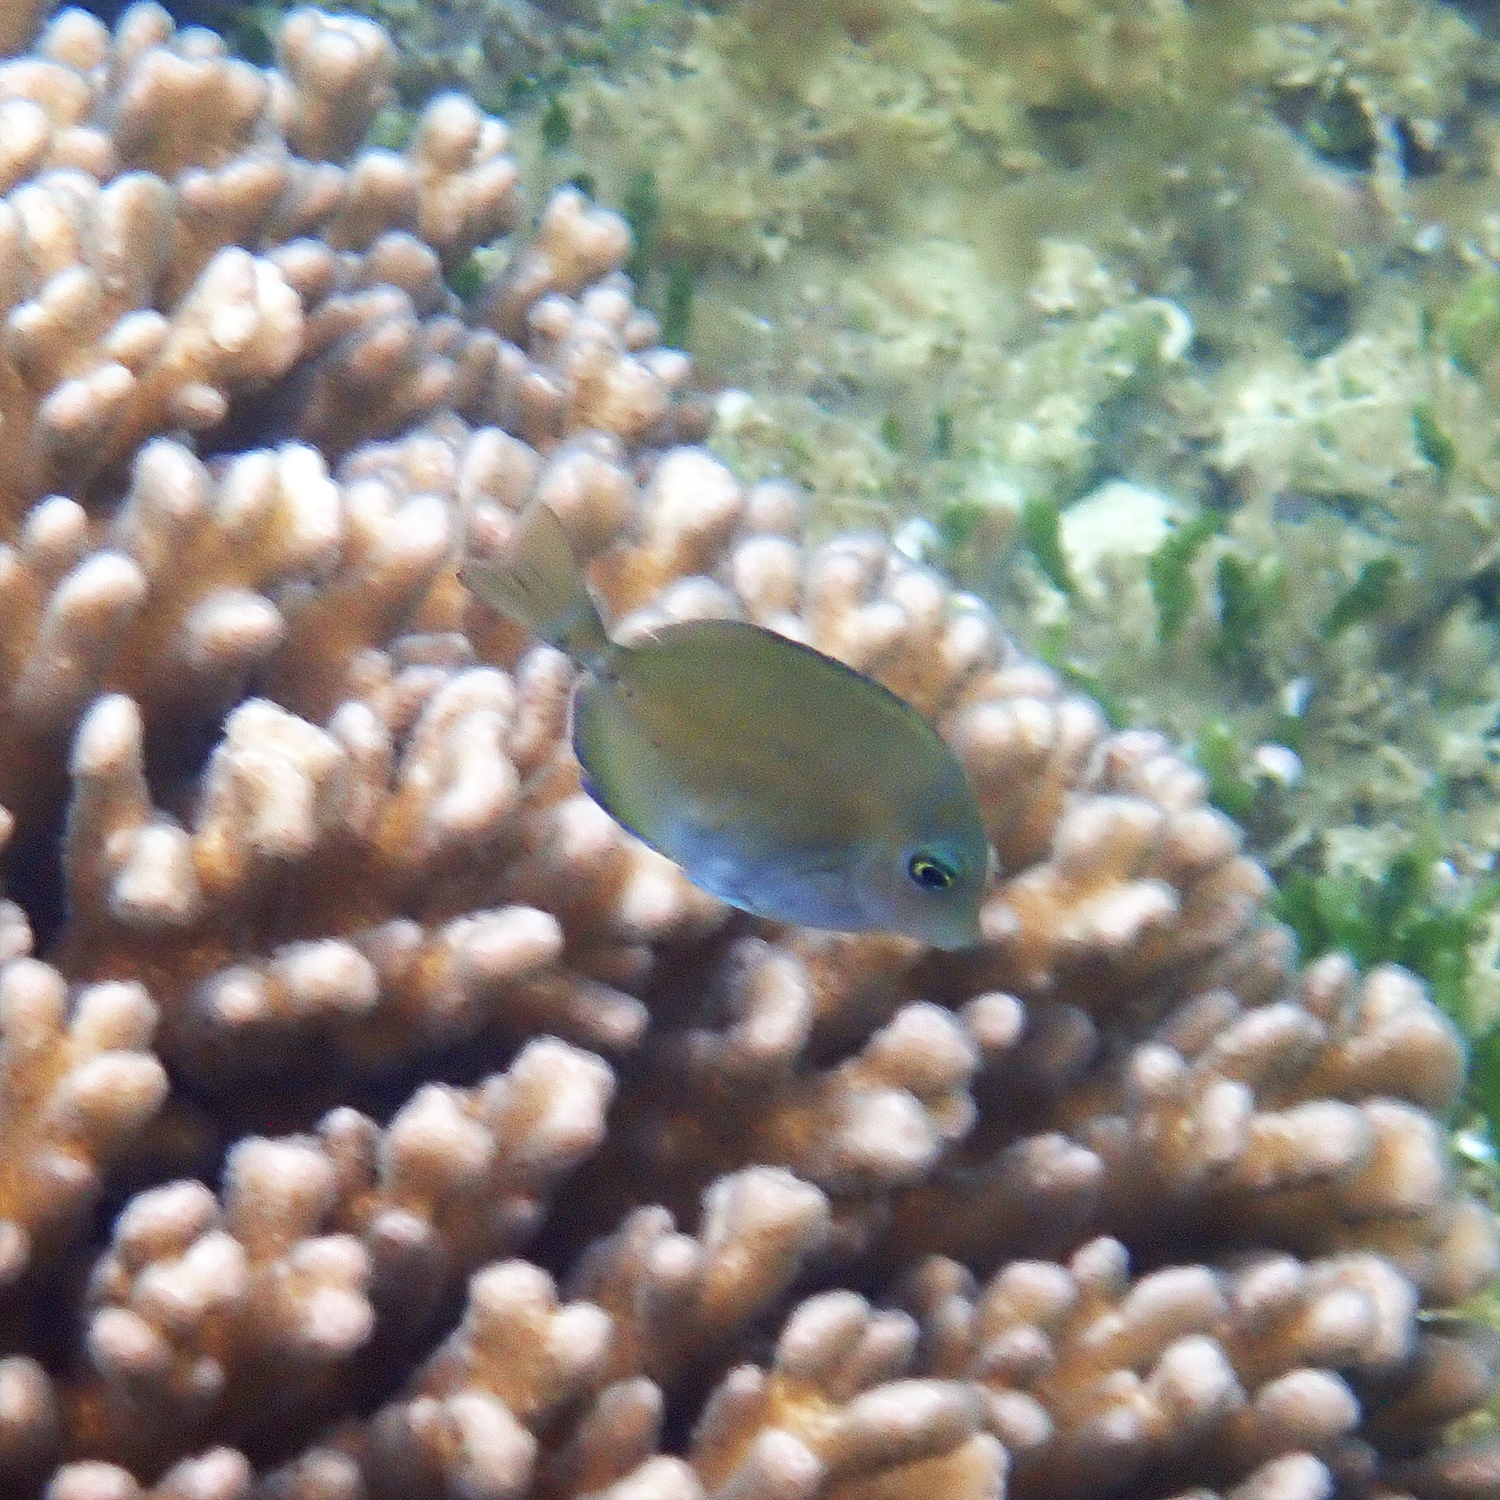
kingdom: Animalia
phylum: Chordata
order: Perciformes
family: Acanthuridae
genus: Prionurus
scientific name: Prionurus maculatus
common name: Yellowspotted sawtail
